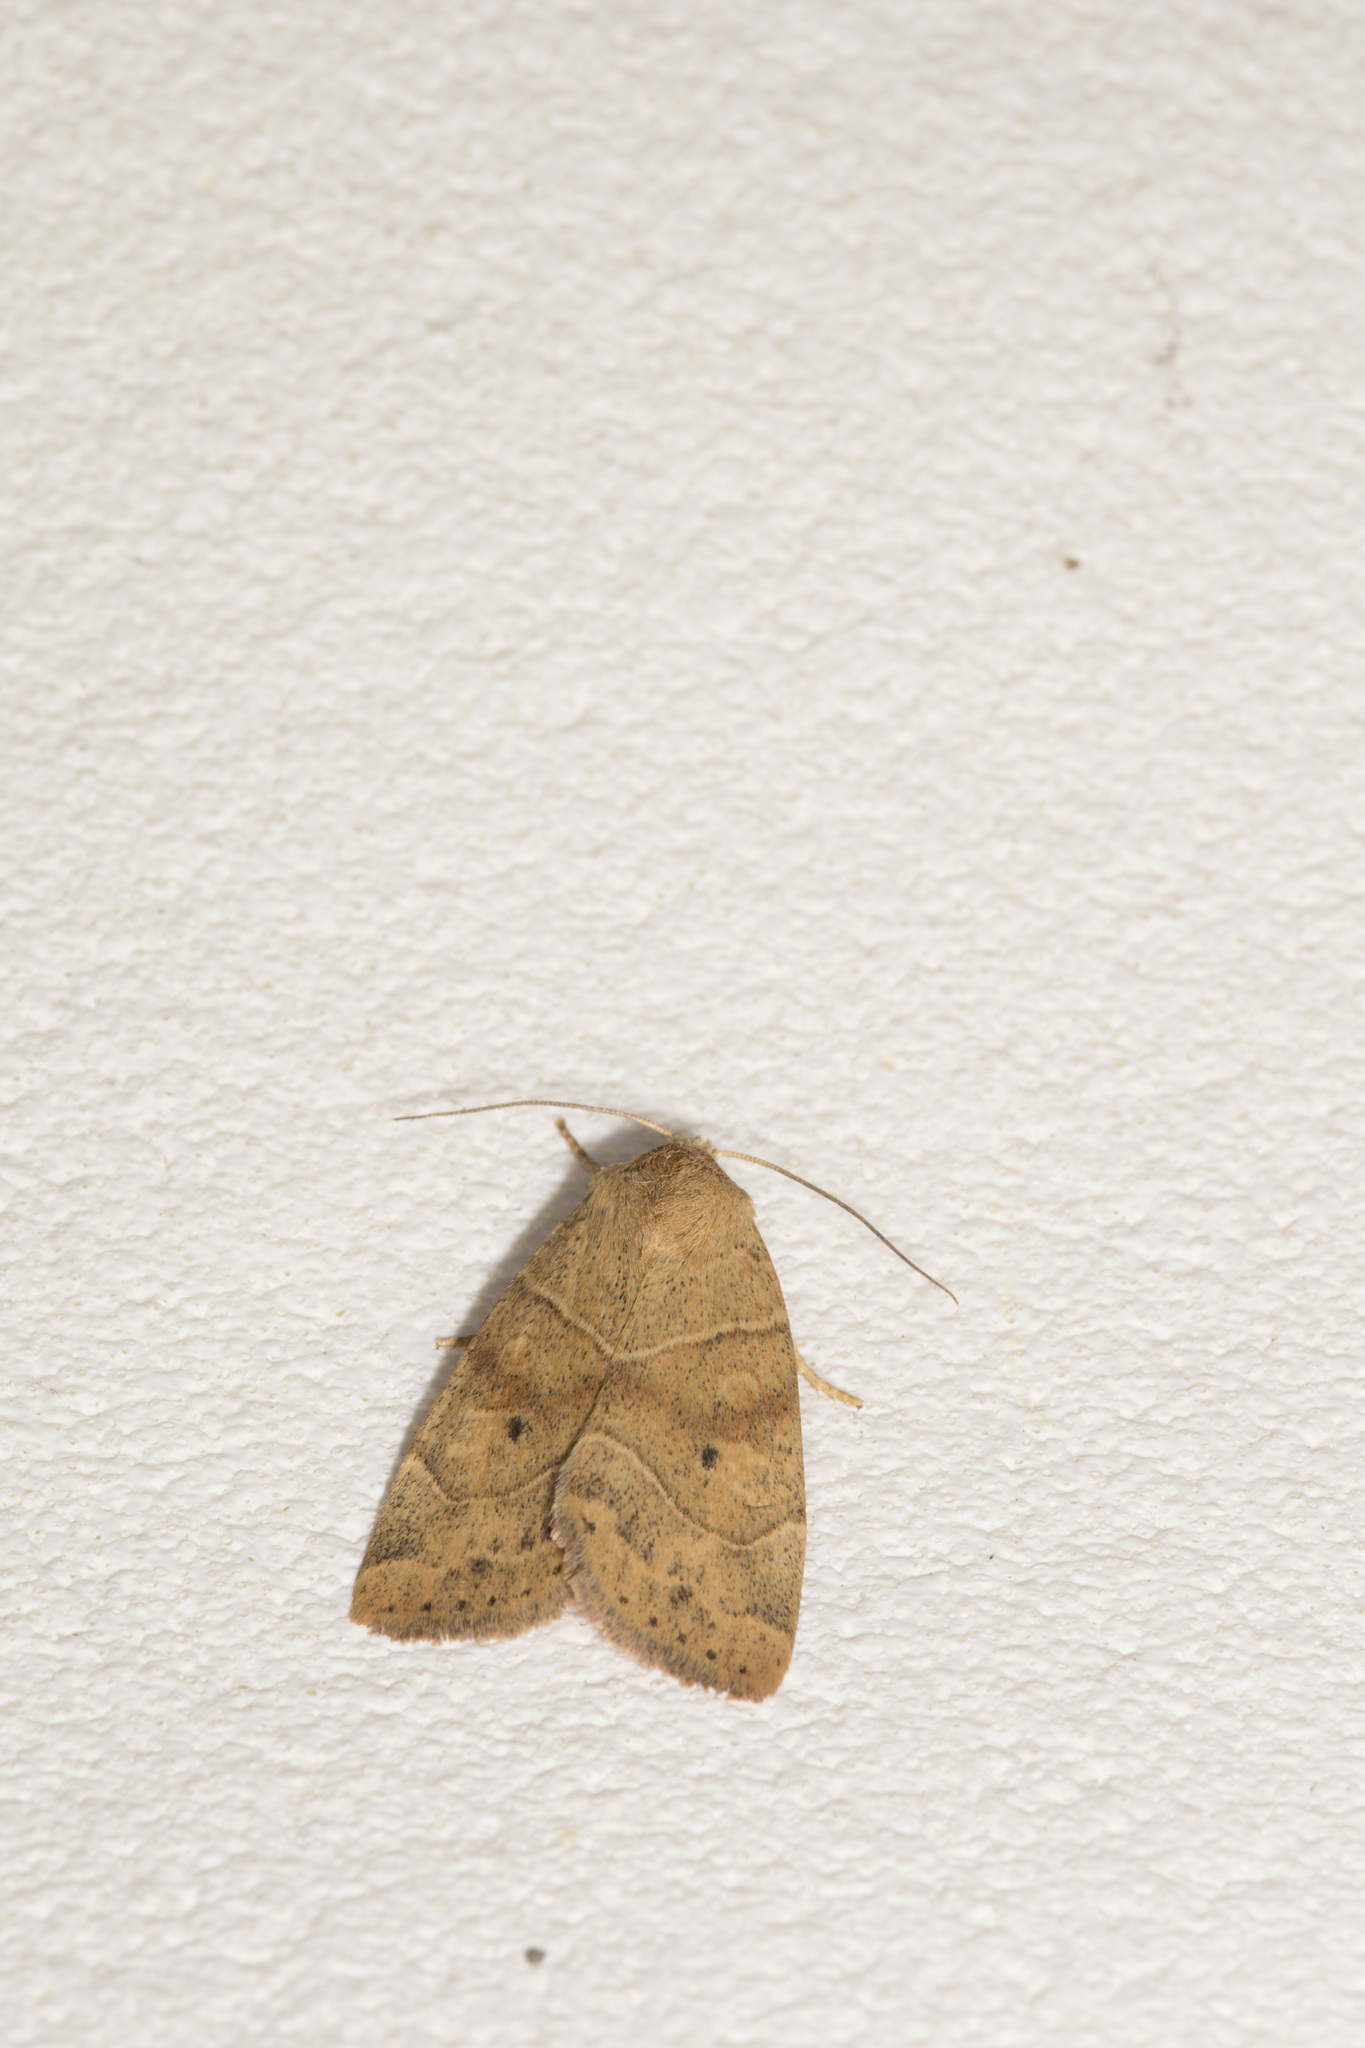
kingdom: Animalia
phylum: Arthropoda
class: Insecta
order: Lepidoptera
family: Noctuidae
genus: Cosmia
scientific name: Cosmia trapezina
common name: Dun-bar
